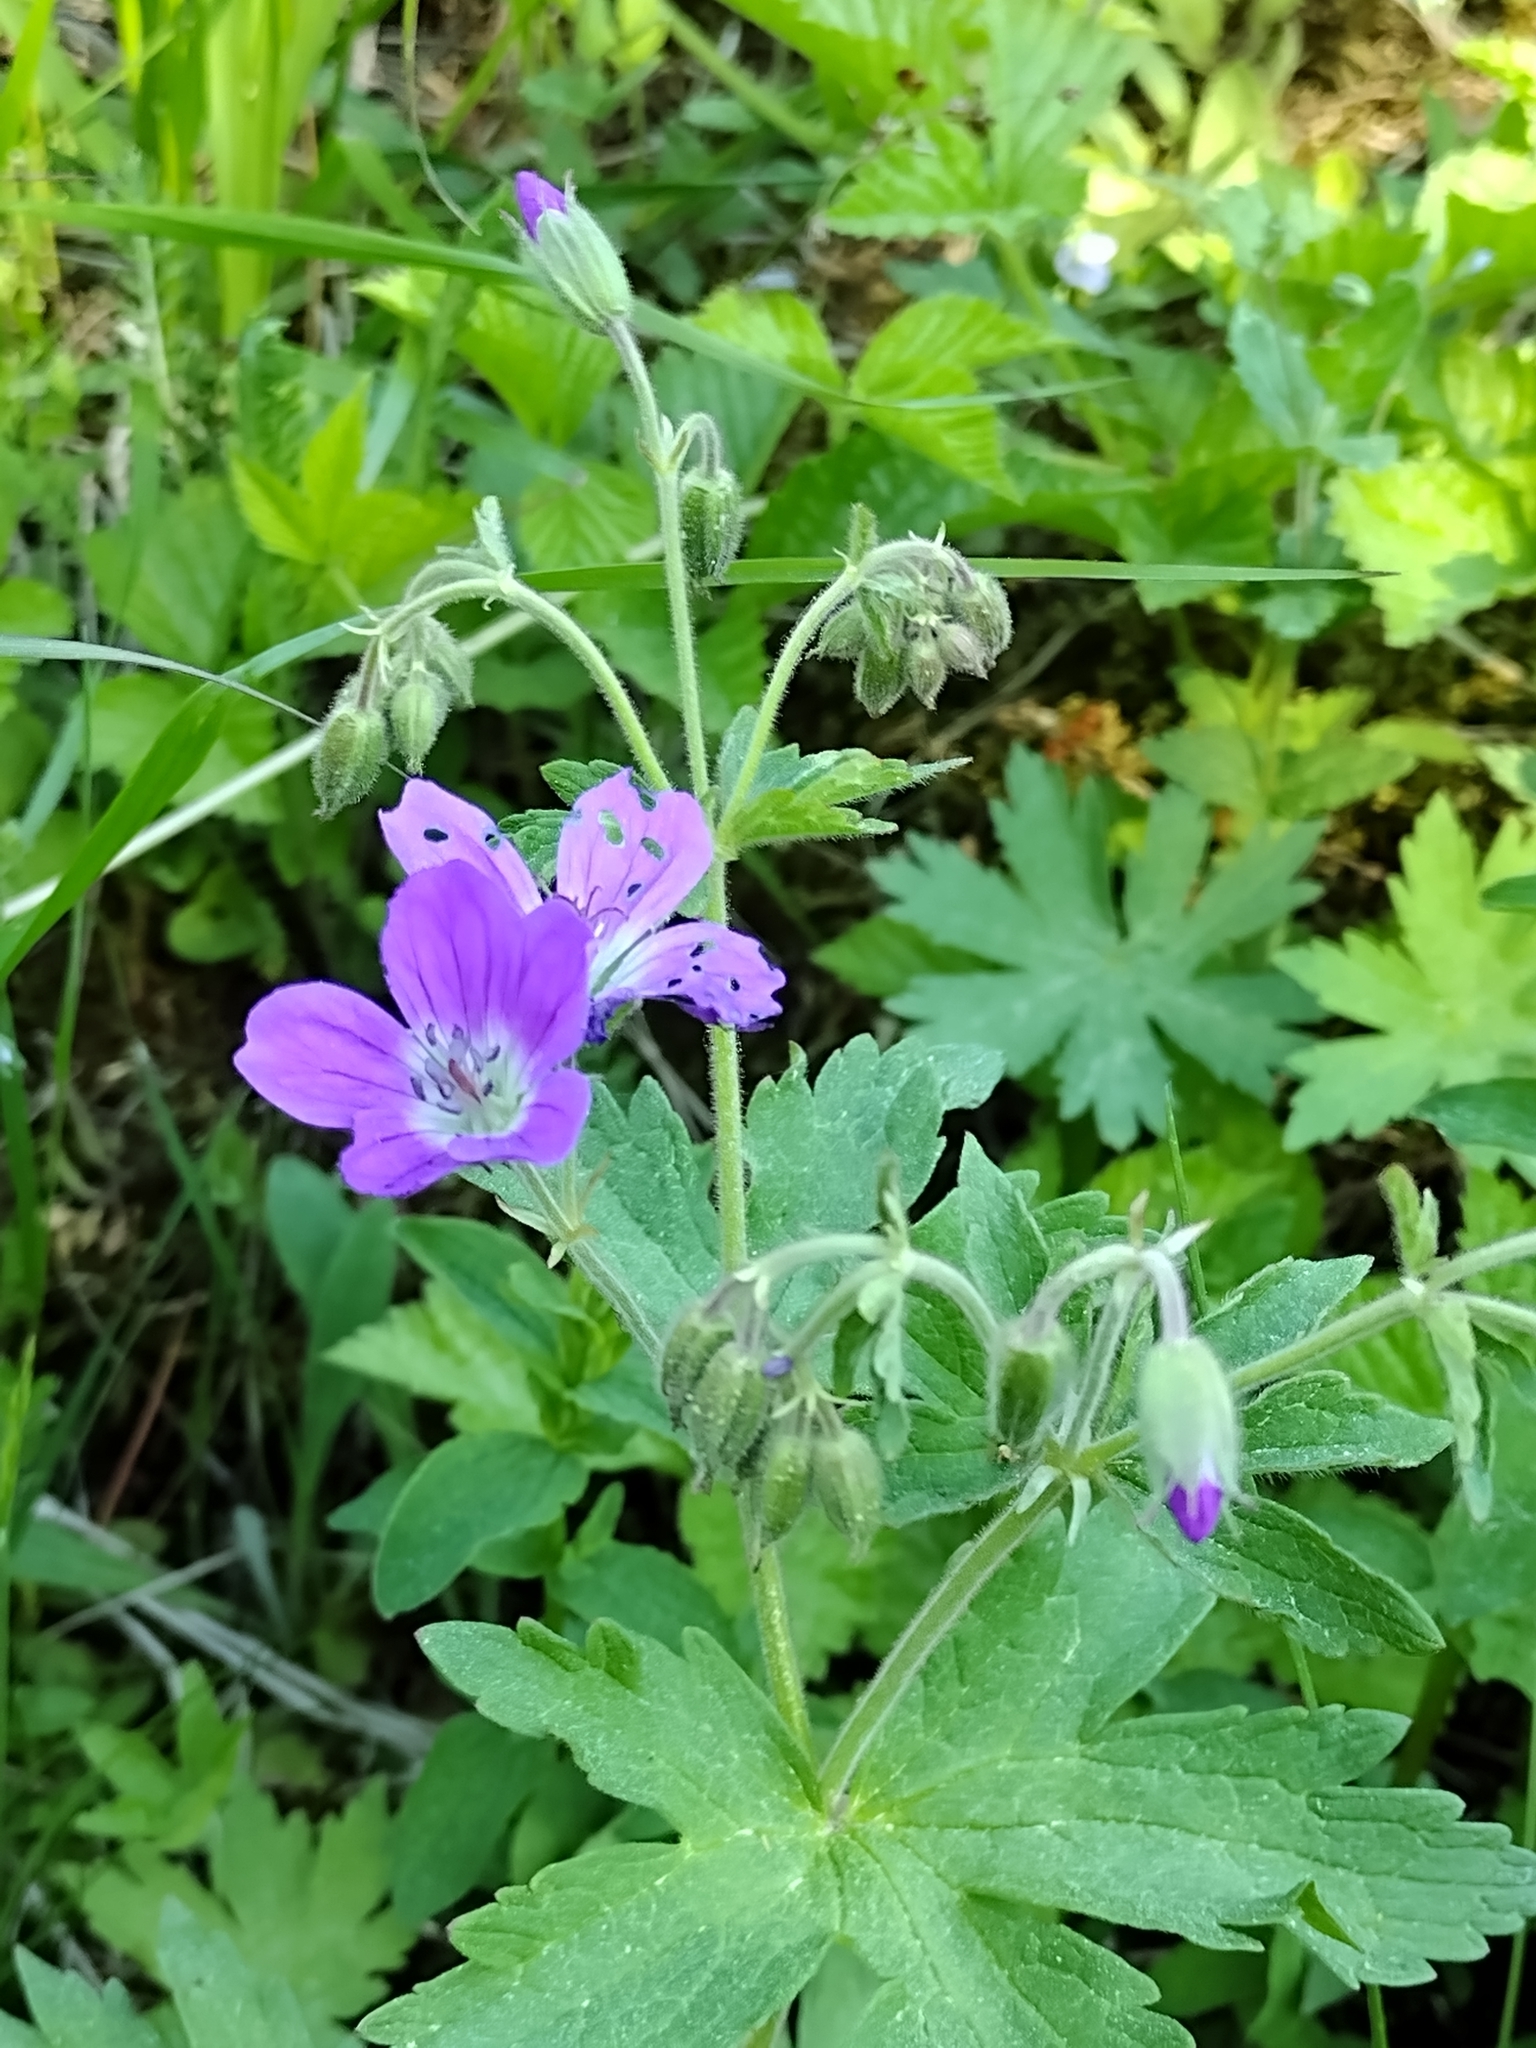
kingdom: Plantae
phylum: Tracheophyta
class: Magnoliopsida
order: Geraniales
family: Geraniaceae
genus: Geranium
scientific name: Geranium sylvaticum
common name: Wood crane's-bill
